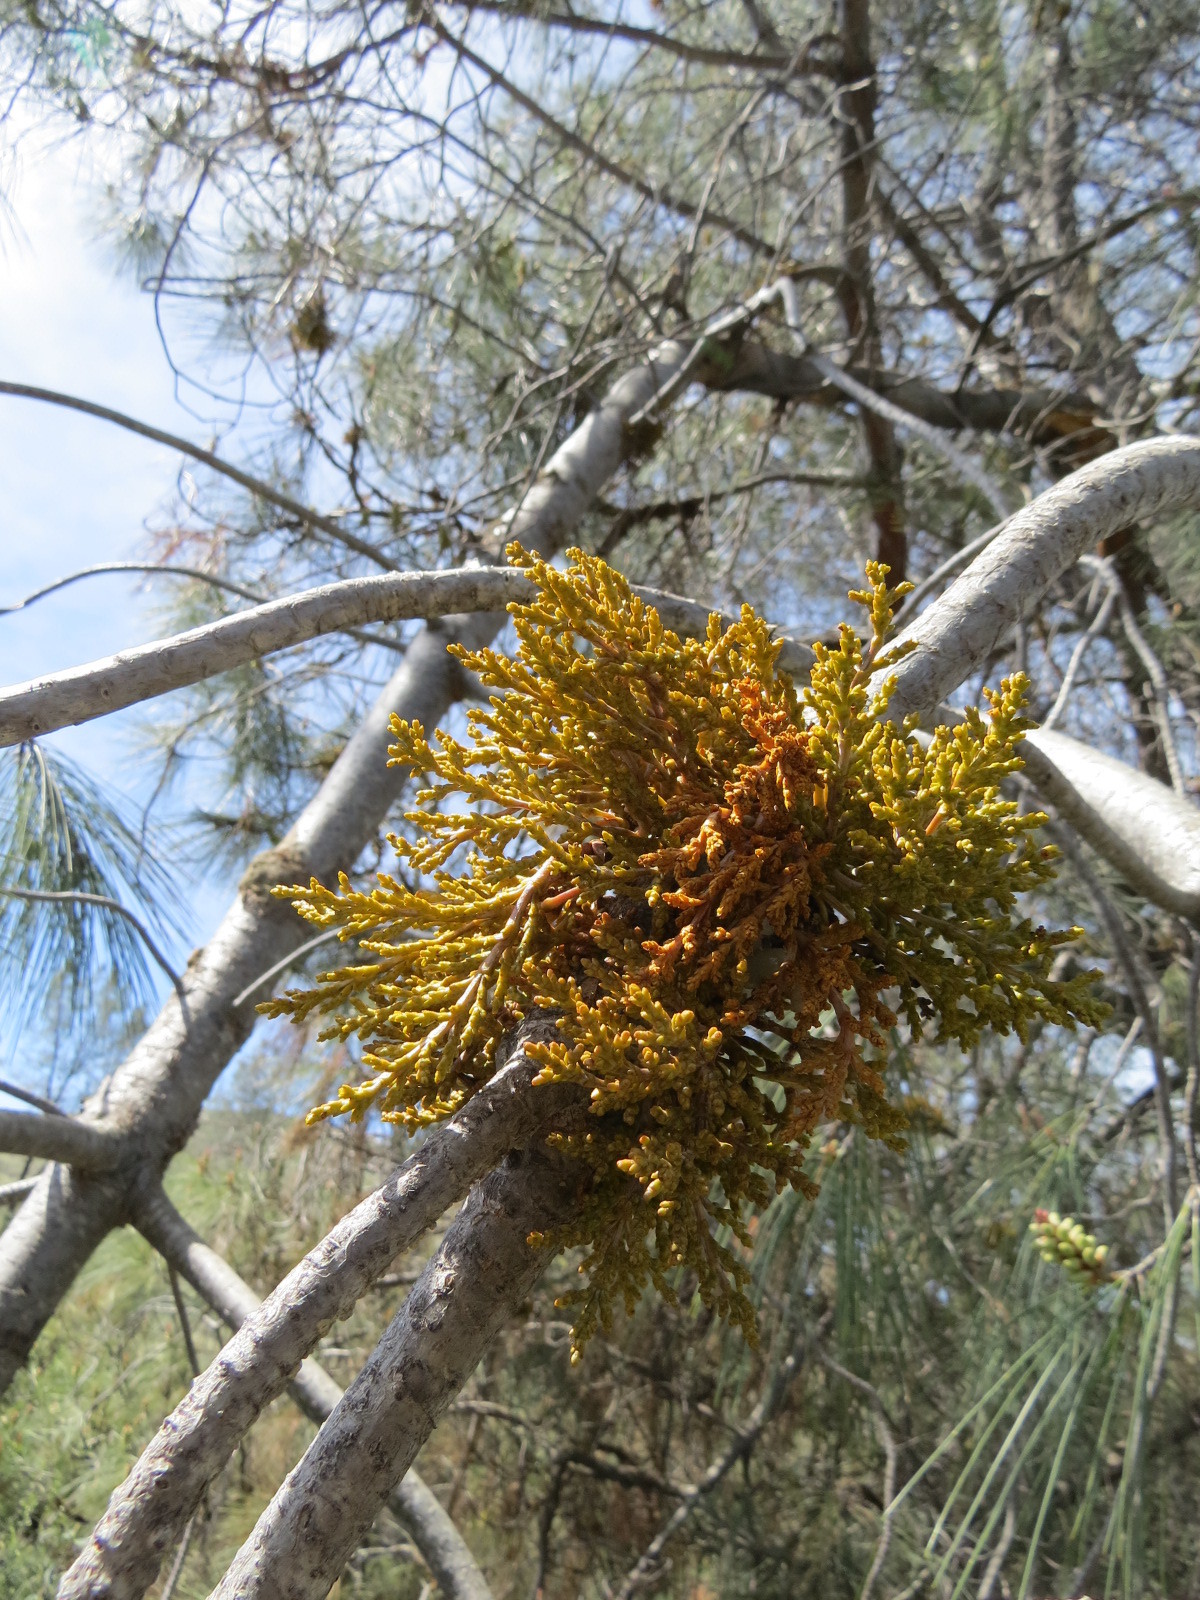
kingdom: Plantae
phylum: Tracheophyta
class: Magnoliopsida
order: Santalales
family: Viscaceae
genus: Arceuthobium
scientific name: Arceuthobium campylopodum
